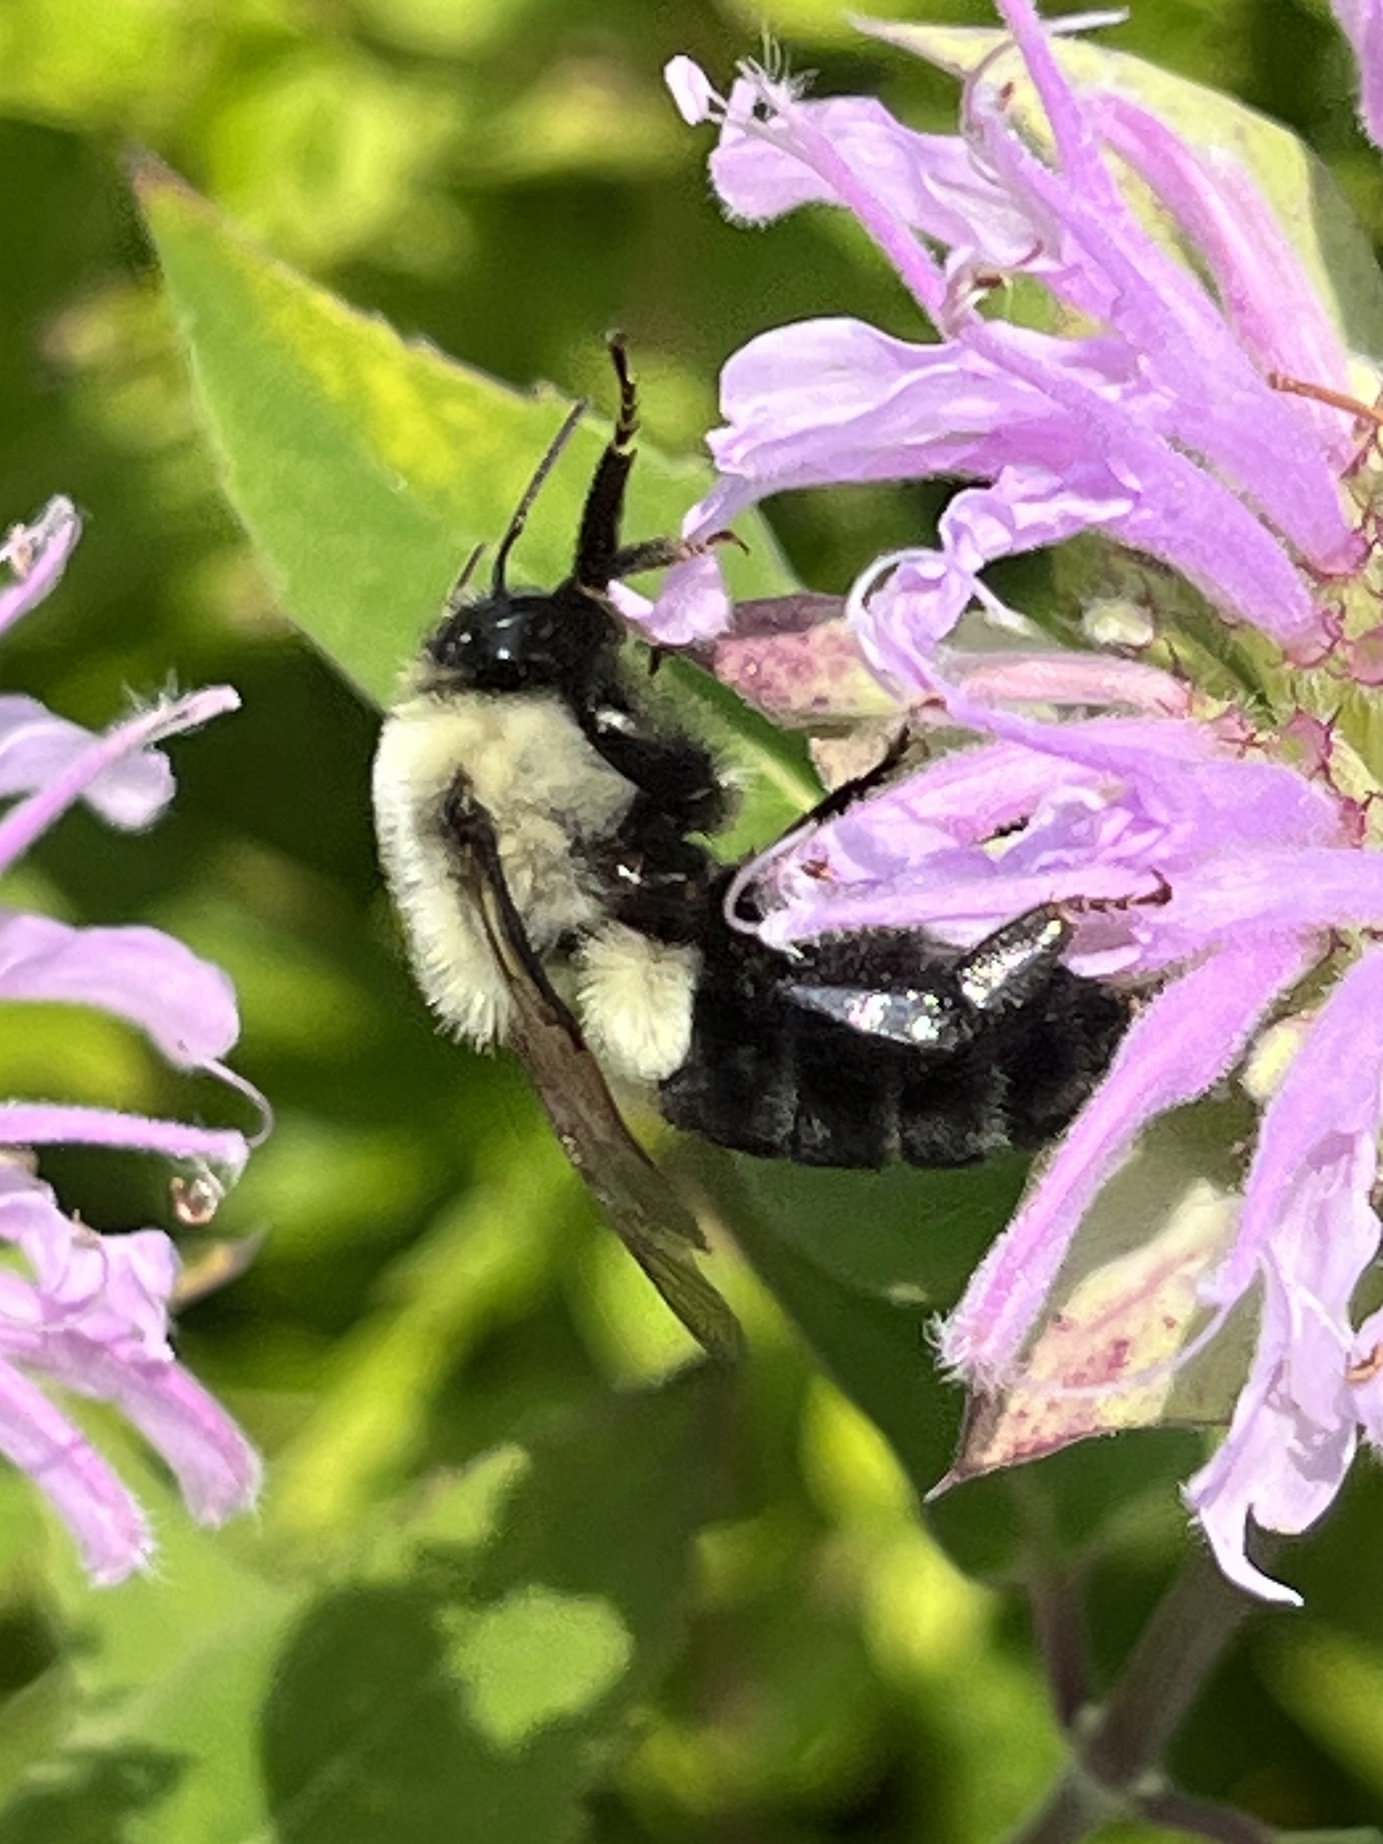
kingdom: Animalia
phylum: Arthropoda
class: Insecta
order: Hymenoptera
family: Apidae
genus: Bombus
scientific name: Bombus impatiens
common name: Common eastern bumble bee
